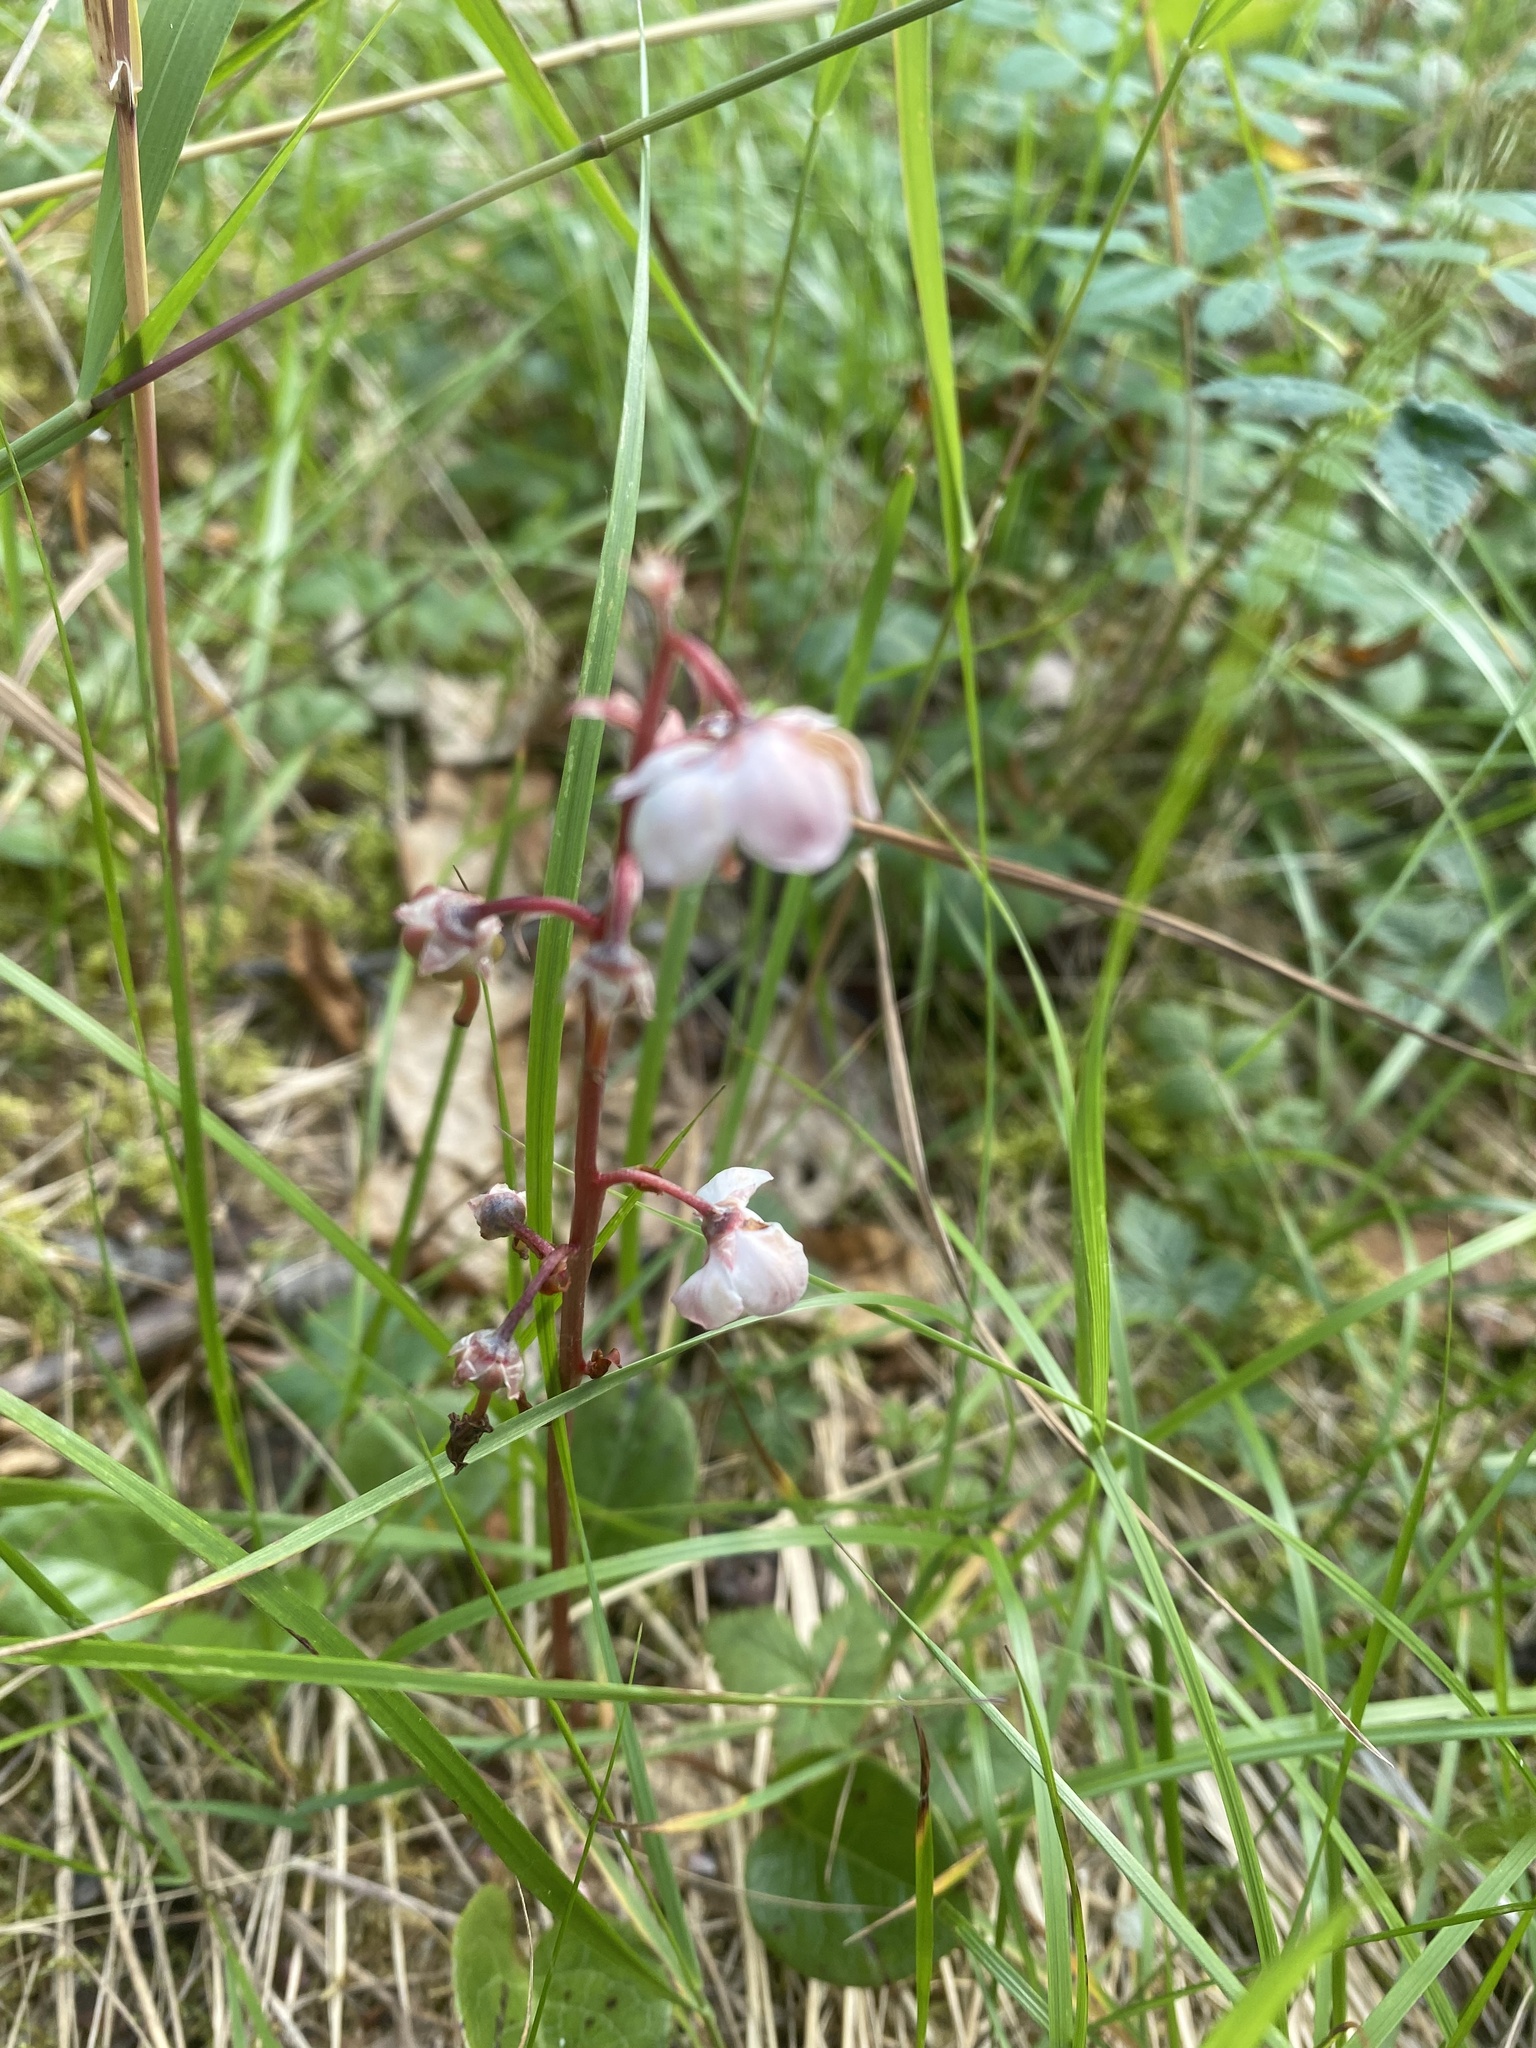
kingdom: Plantae
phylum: Tracheophyta
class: Magnoliopsida
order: Ericales
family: Ericaceae
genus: Pyrola
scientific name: Pyrola asarifolia
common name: Bog wintergreen
